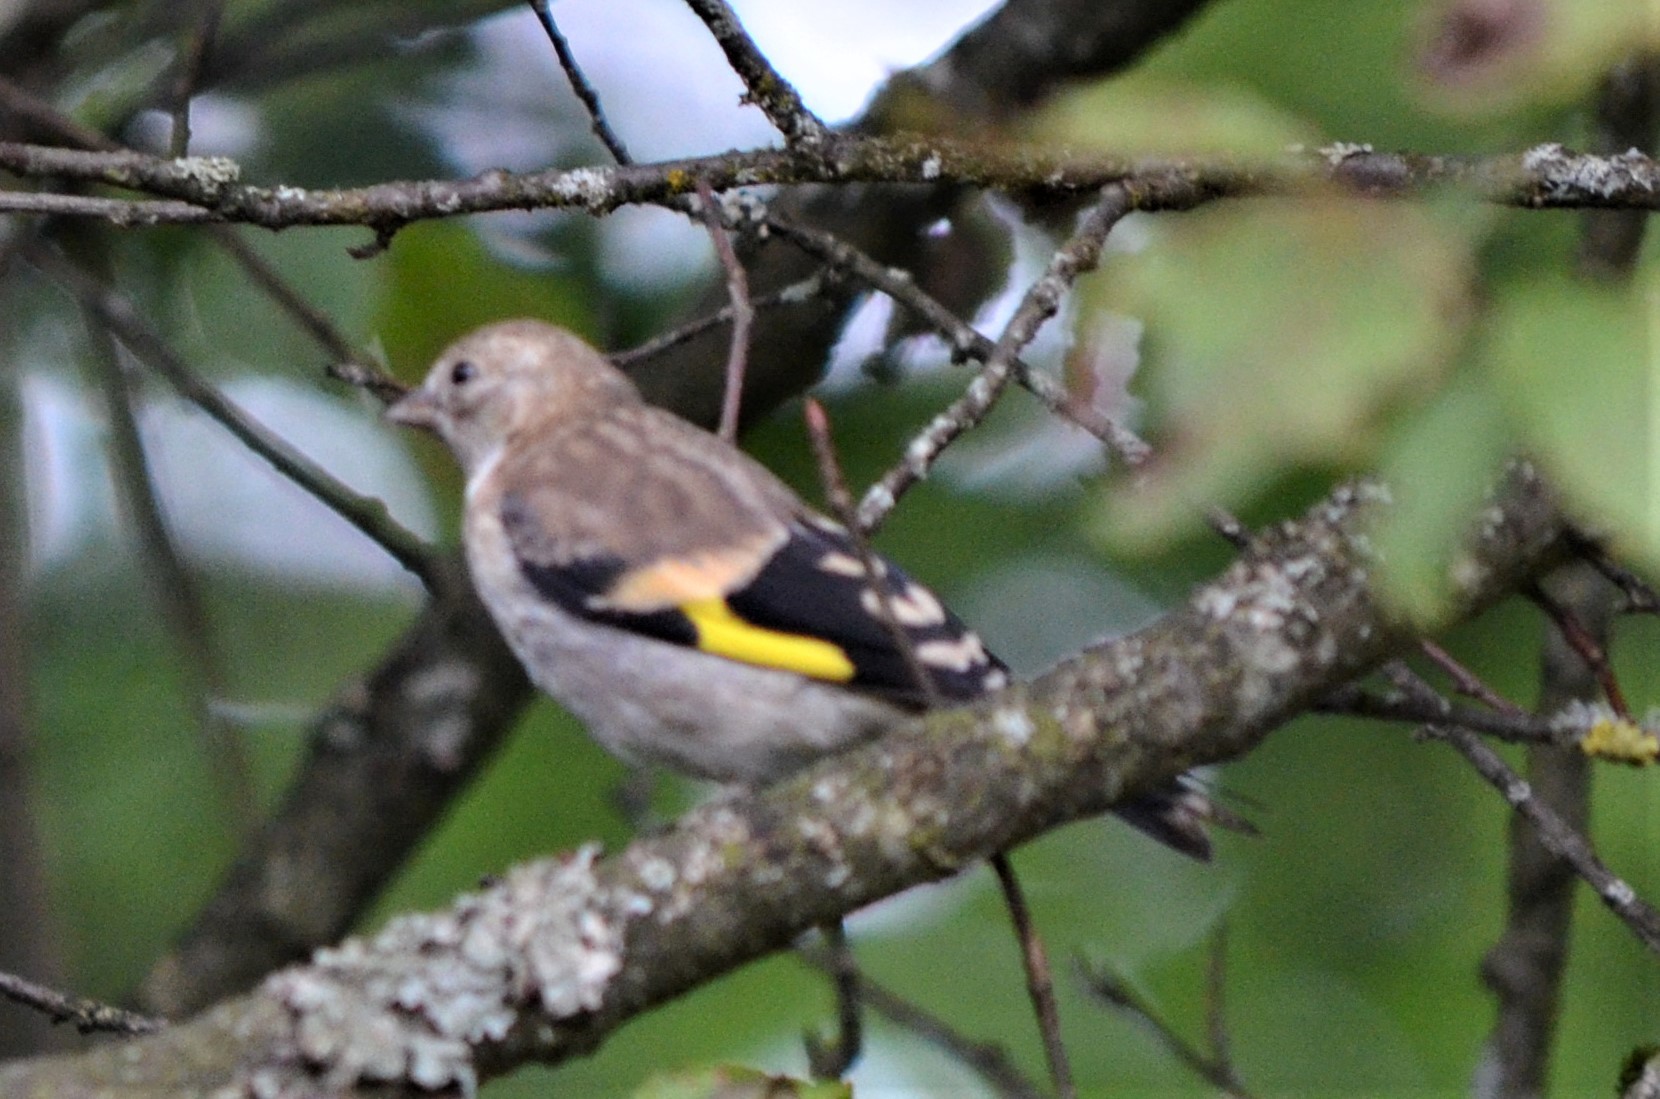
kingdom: Animalia
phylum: Chordata
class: Aves
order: Passeriformes
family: Fringillidae
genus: Carduelis
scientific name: Carduelis carduelis
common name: European goldfinch
